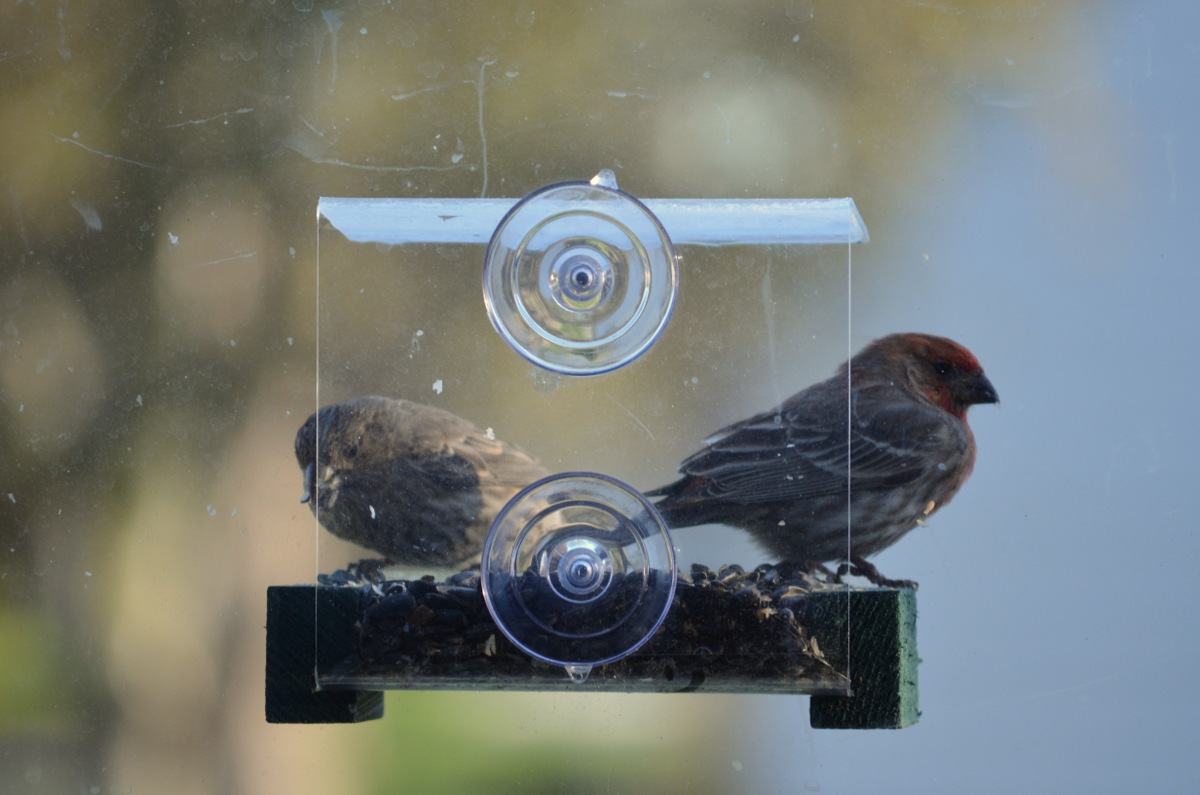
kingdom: Animalia
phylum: Chordata
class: Aves
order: Passeriformes
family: Fringillidae
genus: Haemorhous
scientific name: Haemorhous mexicanus
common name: House finch
